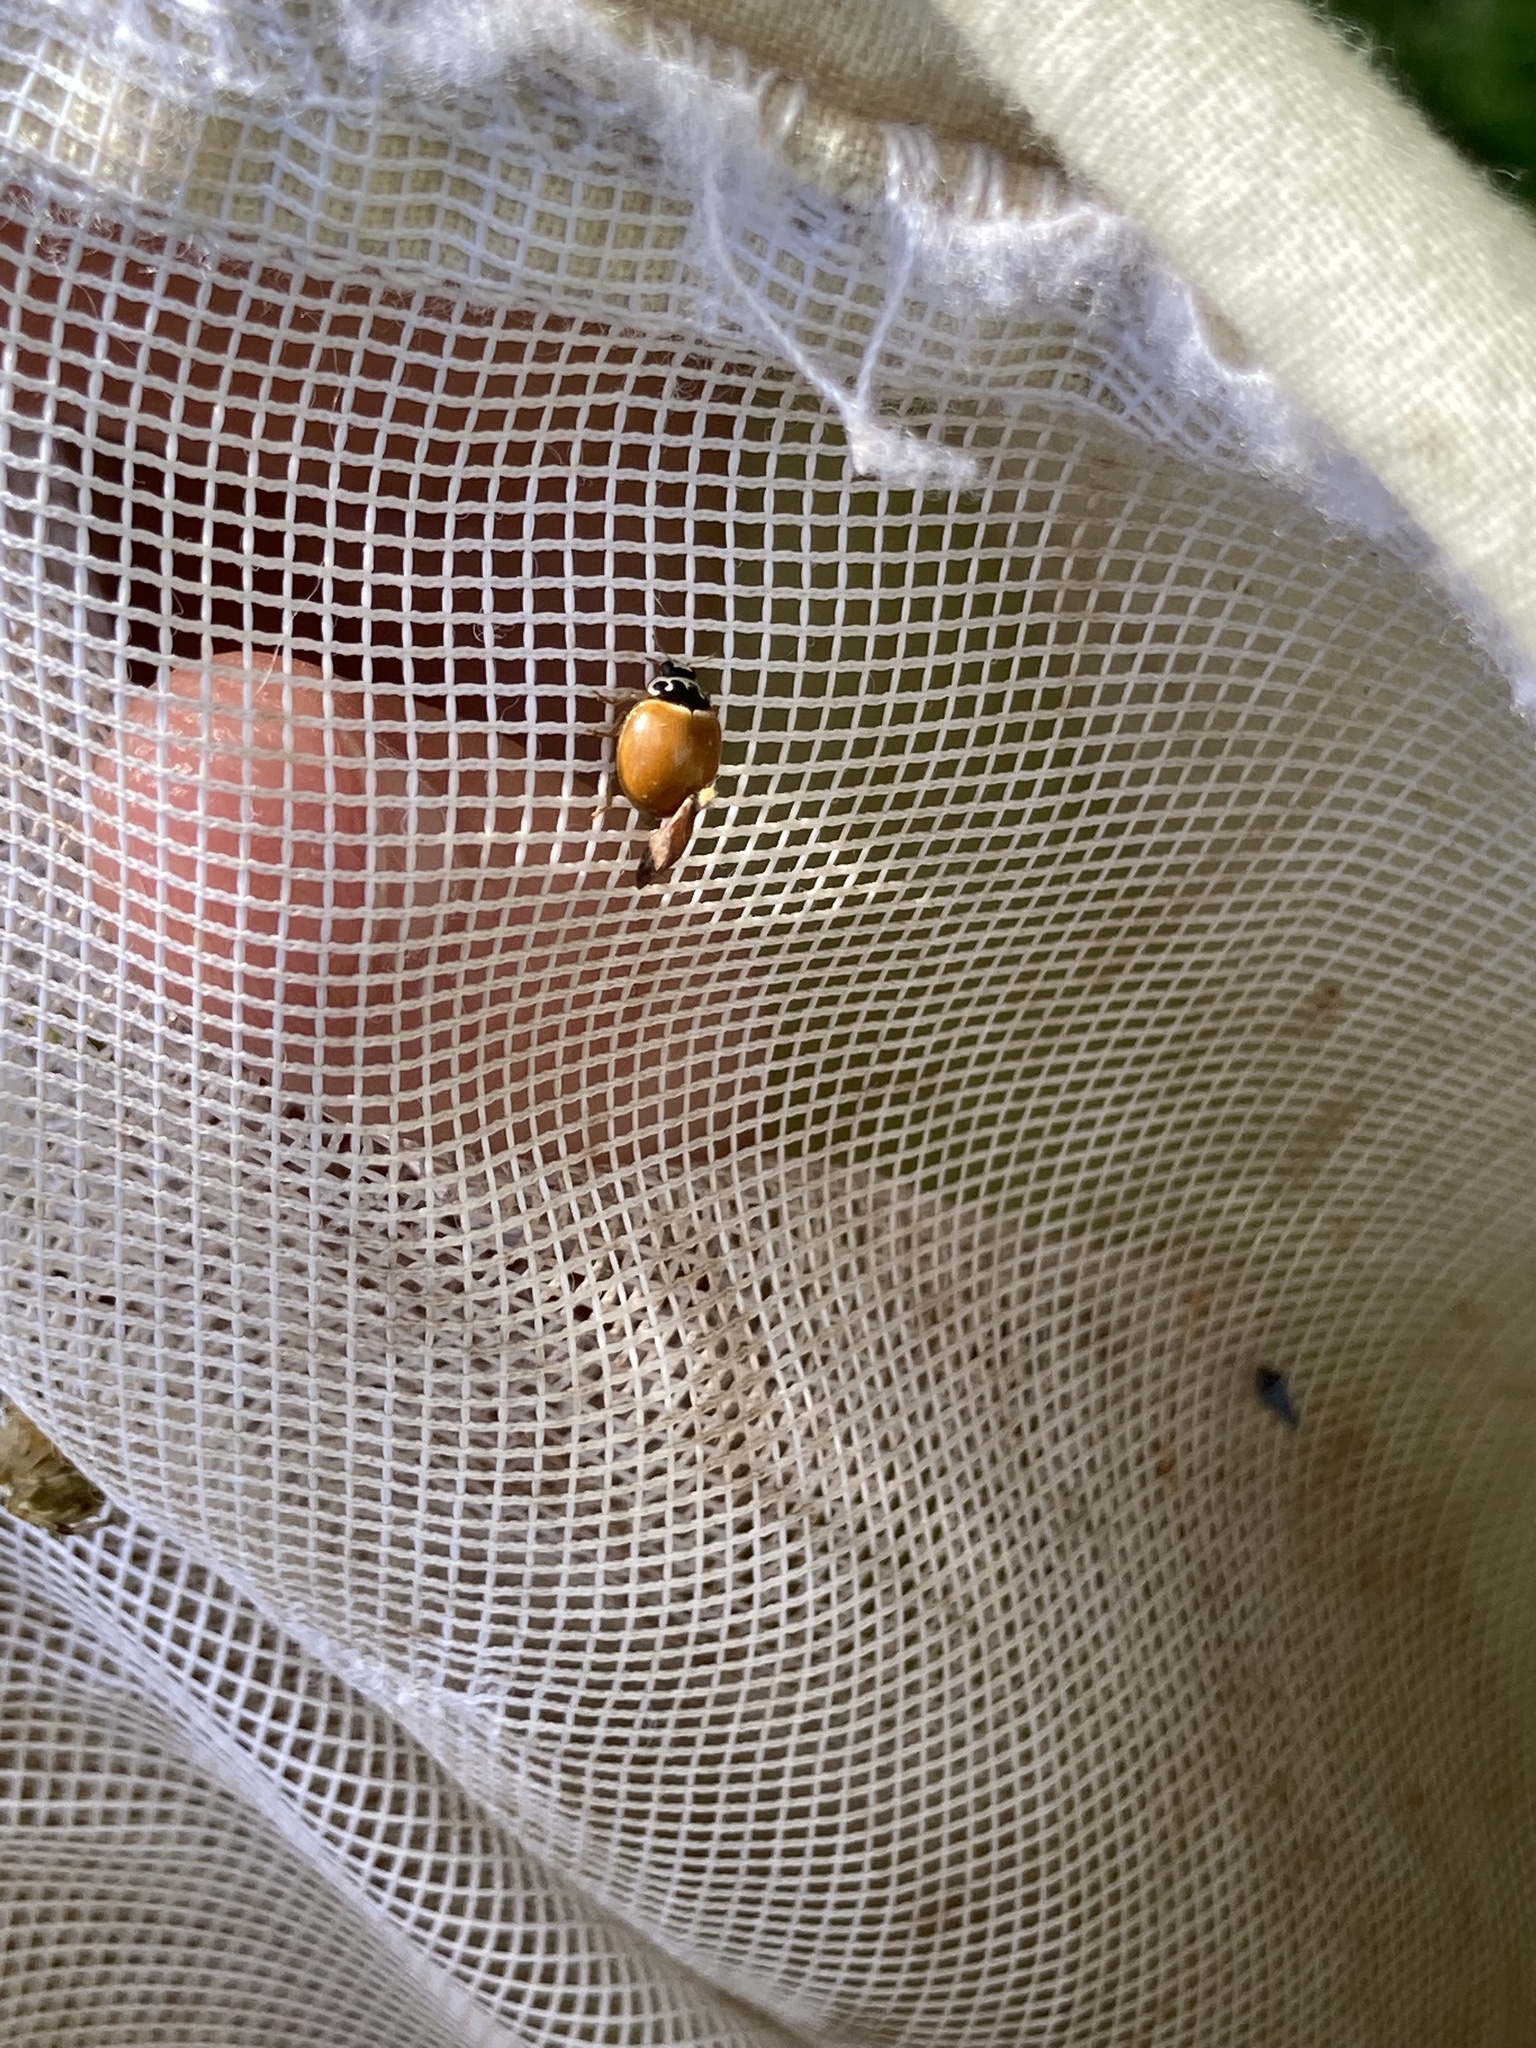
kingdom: Animalia
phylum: Arthropoda
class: Insecta
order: Coleoptera
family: Coccinellidae
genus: Cycloneda
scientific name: Cycloneda munda
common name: Polished lady beetle
